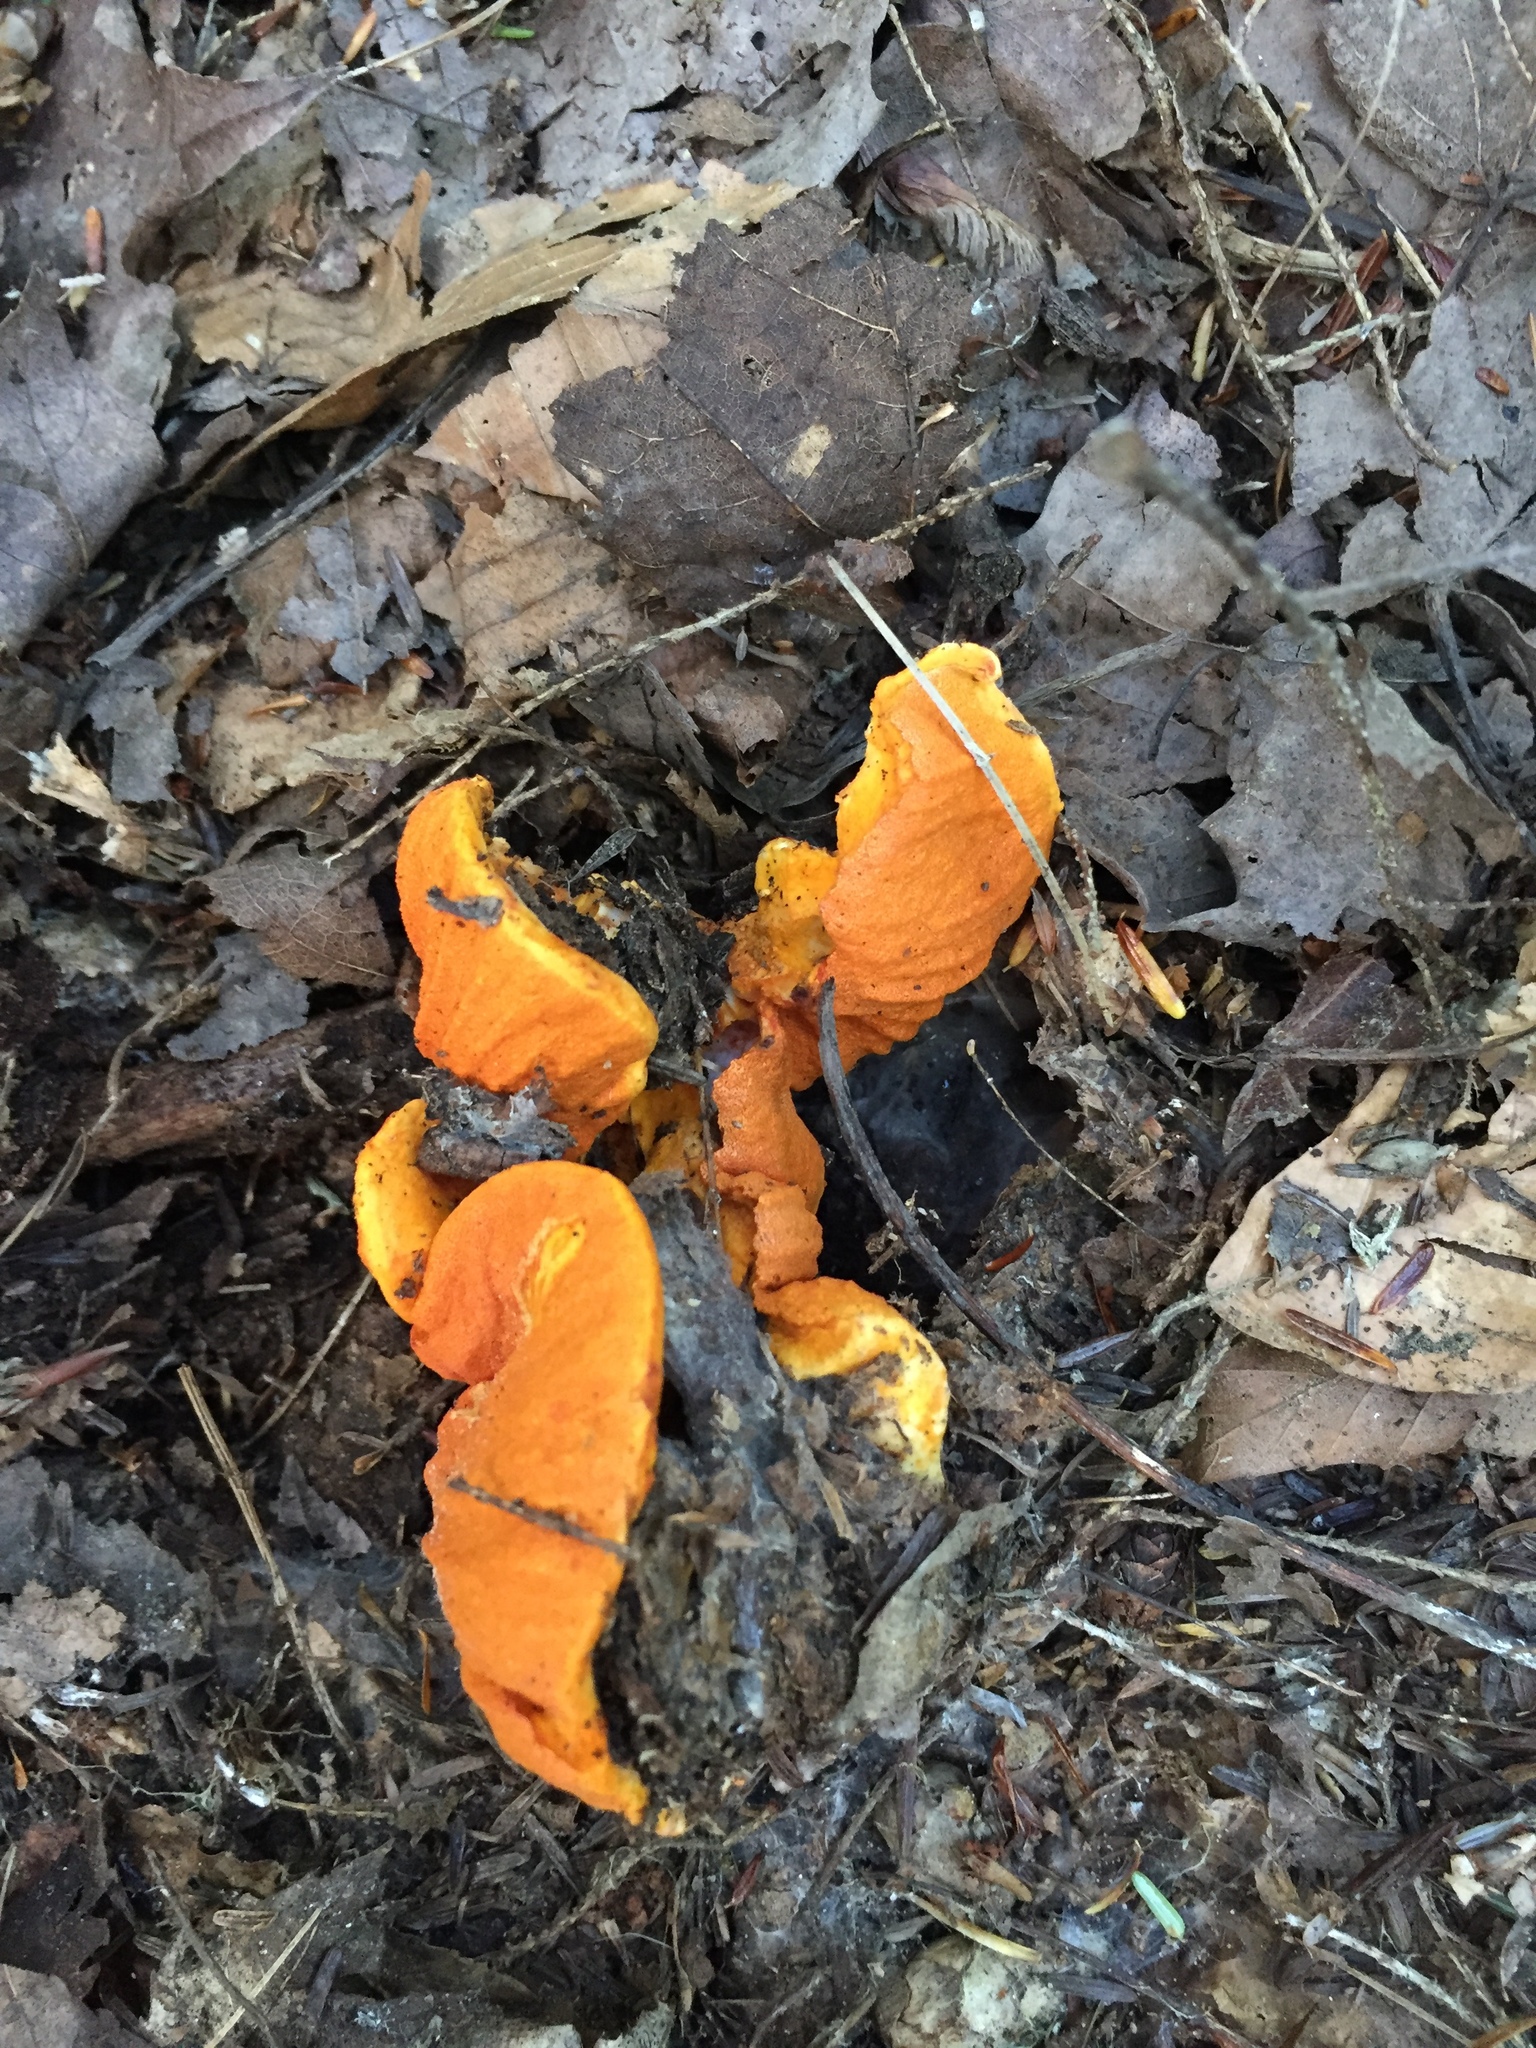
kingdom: Fungi
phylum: Ascomycota
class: Sordariomycetes
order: Hypocreales
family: Hypocreaceae
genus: Hypomyces
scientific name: Hypomyces lactifluorum
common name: Lobster mushroom
